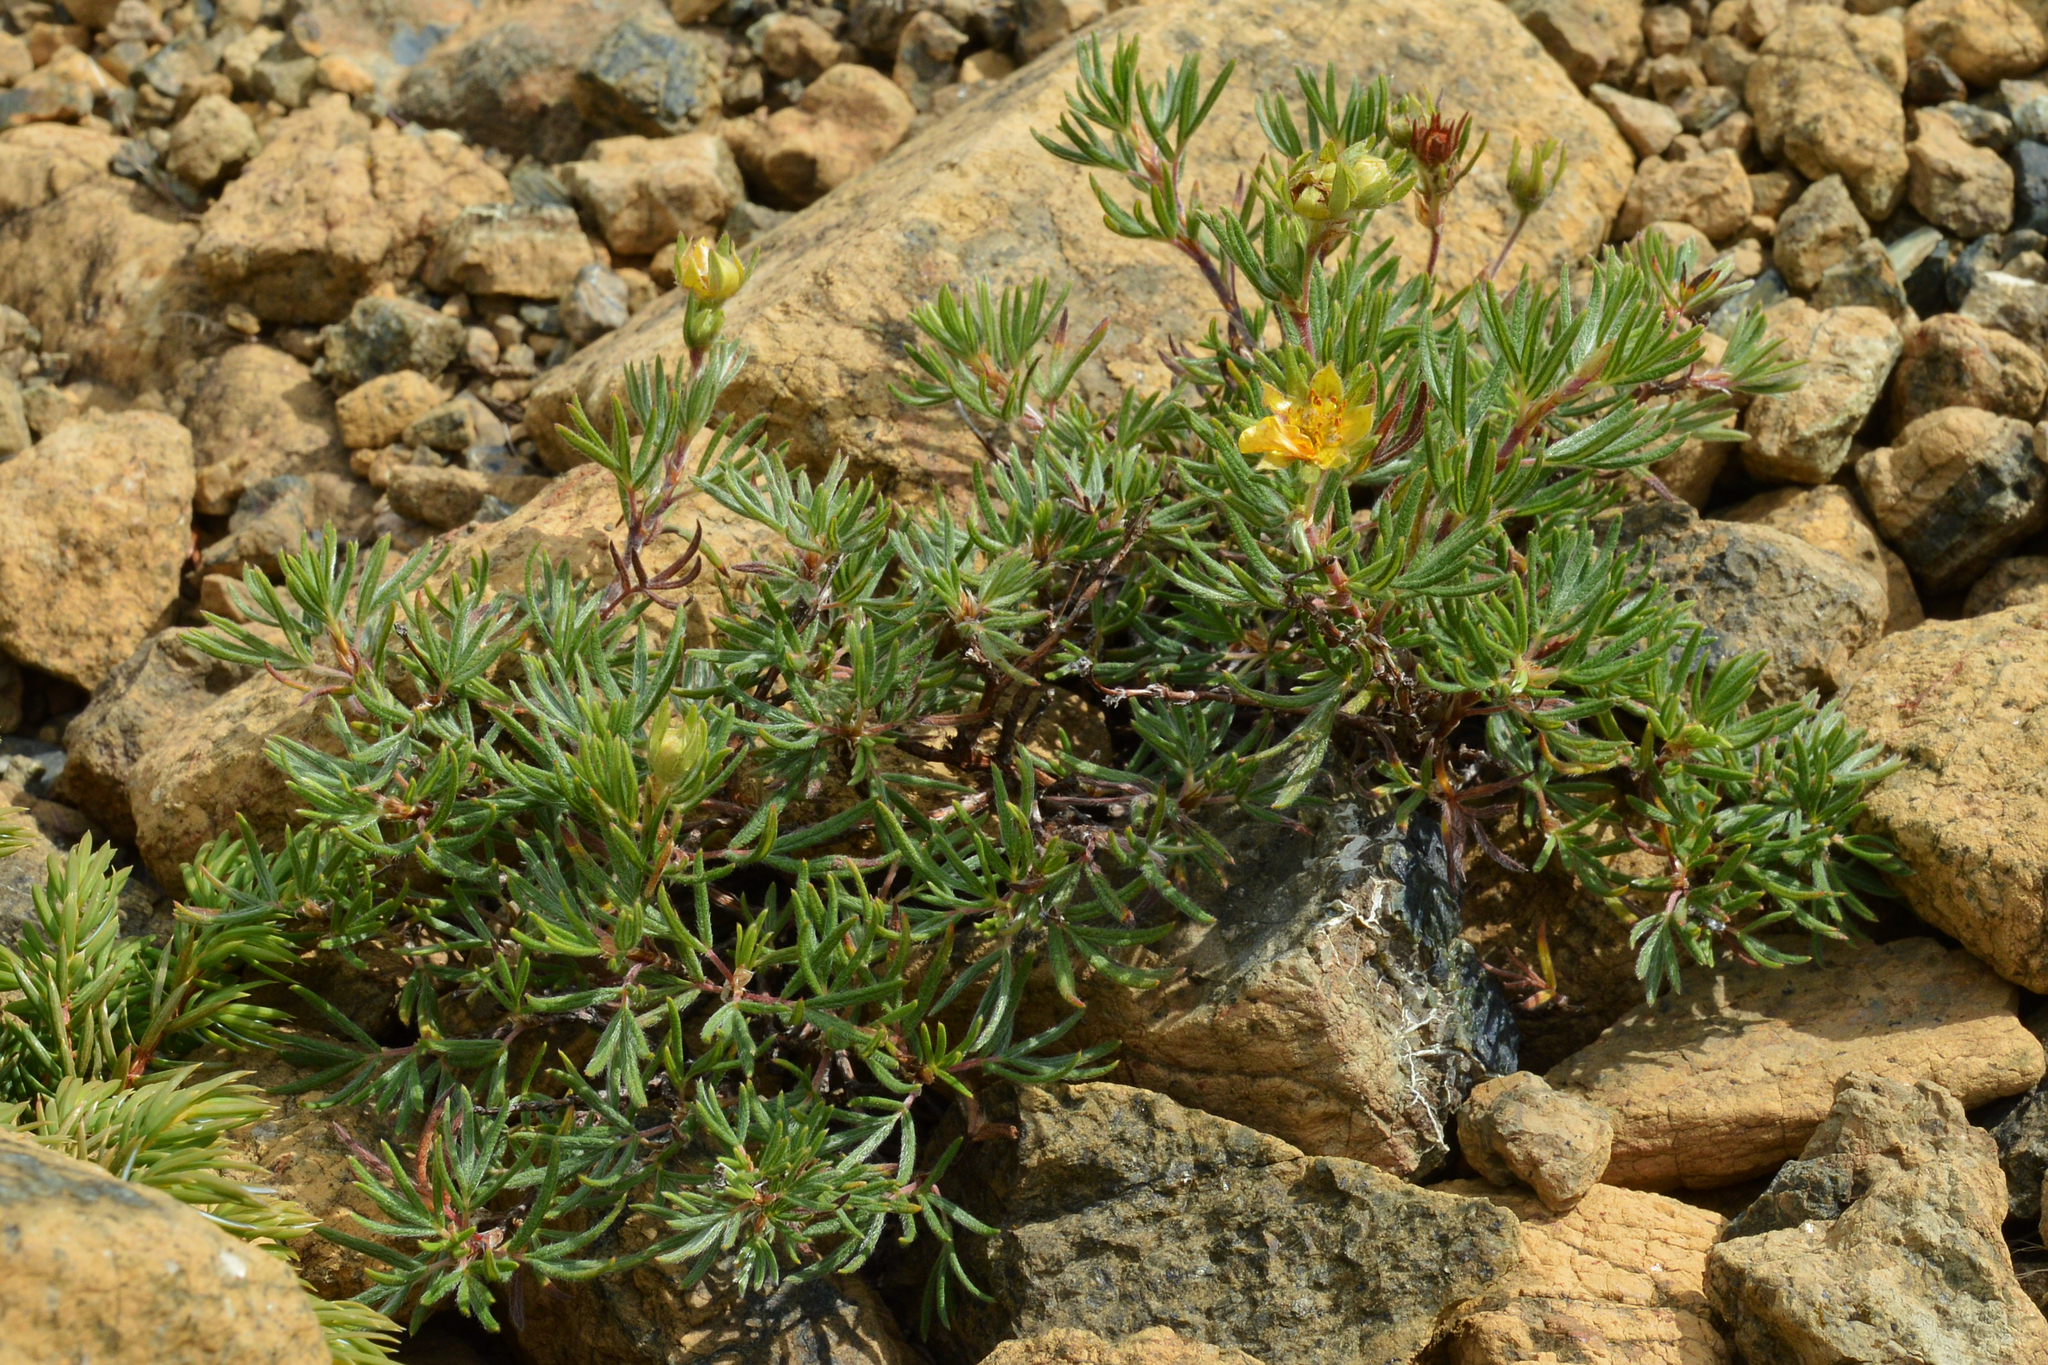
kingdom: Plantae
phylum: Tracheophyta
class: Magnoliopsida
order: Rosales
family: Rosaceae
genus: Dasiphora
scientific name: Dasiphora fruticosa
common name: Shrubby cinquefoil
